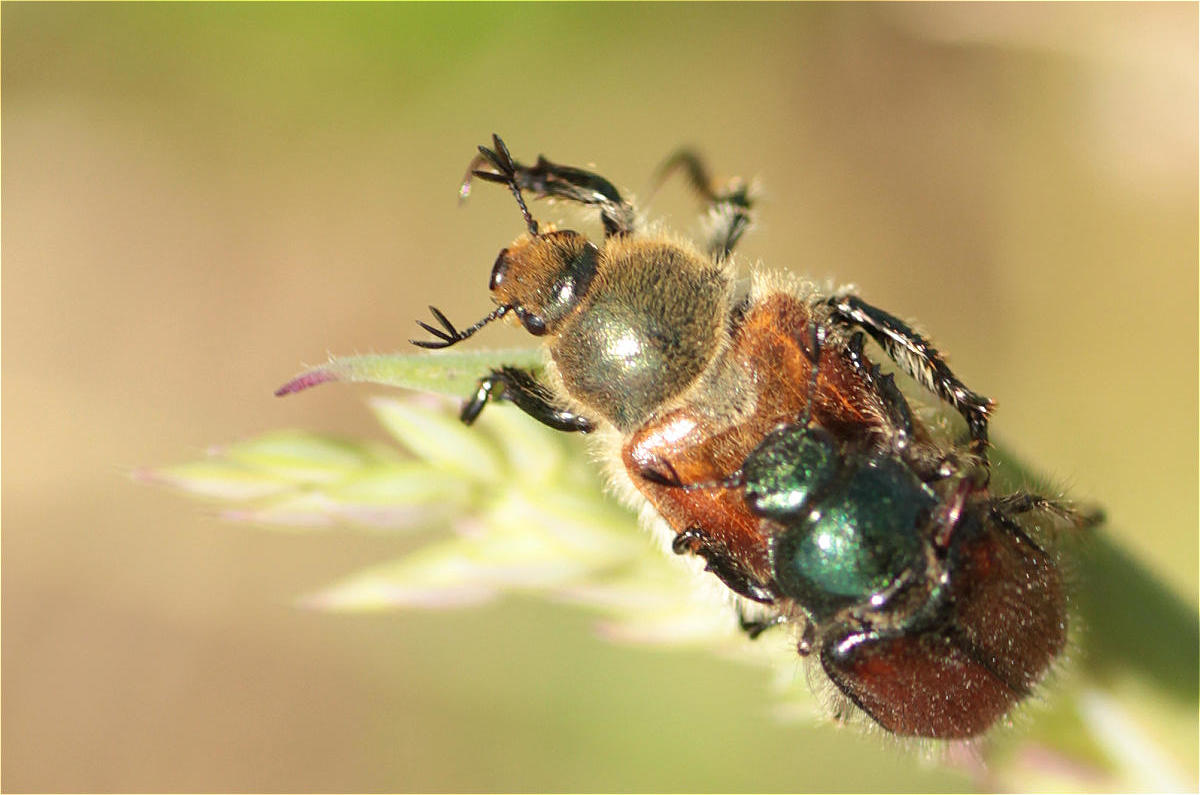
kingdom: Animalia
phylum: Arthropoda
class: Insecta
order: Coleoptera
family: Scarabaeidae
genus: Chaetopteroplia
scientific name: Chaetopteroplia segetum
